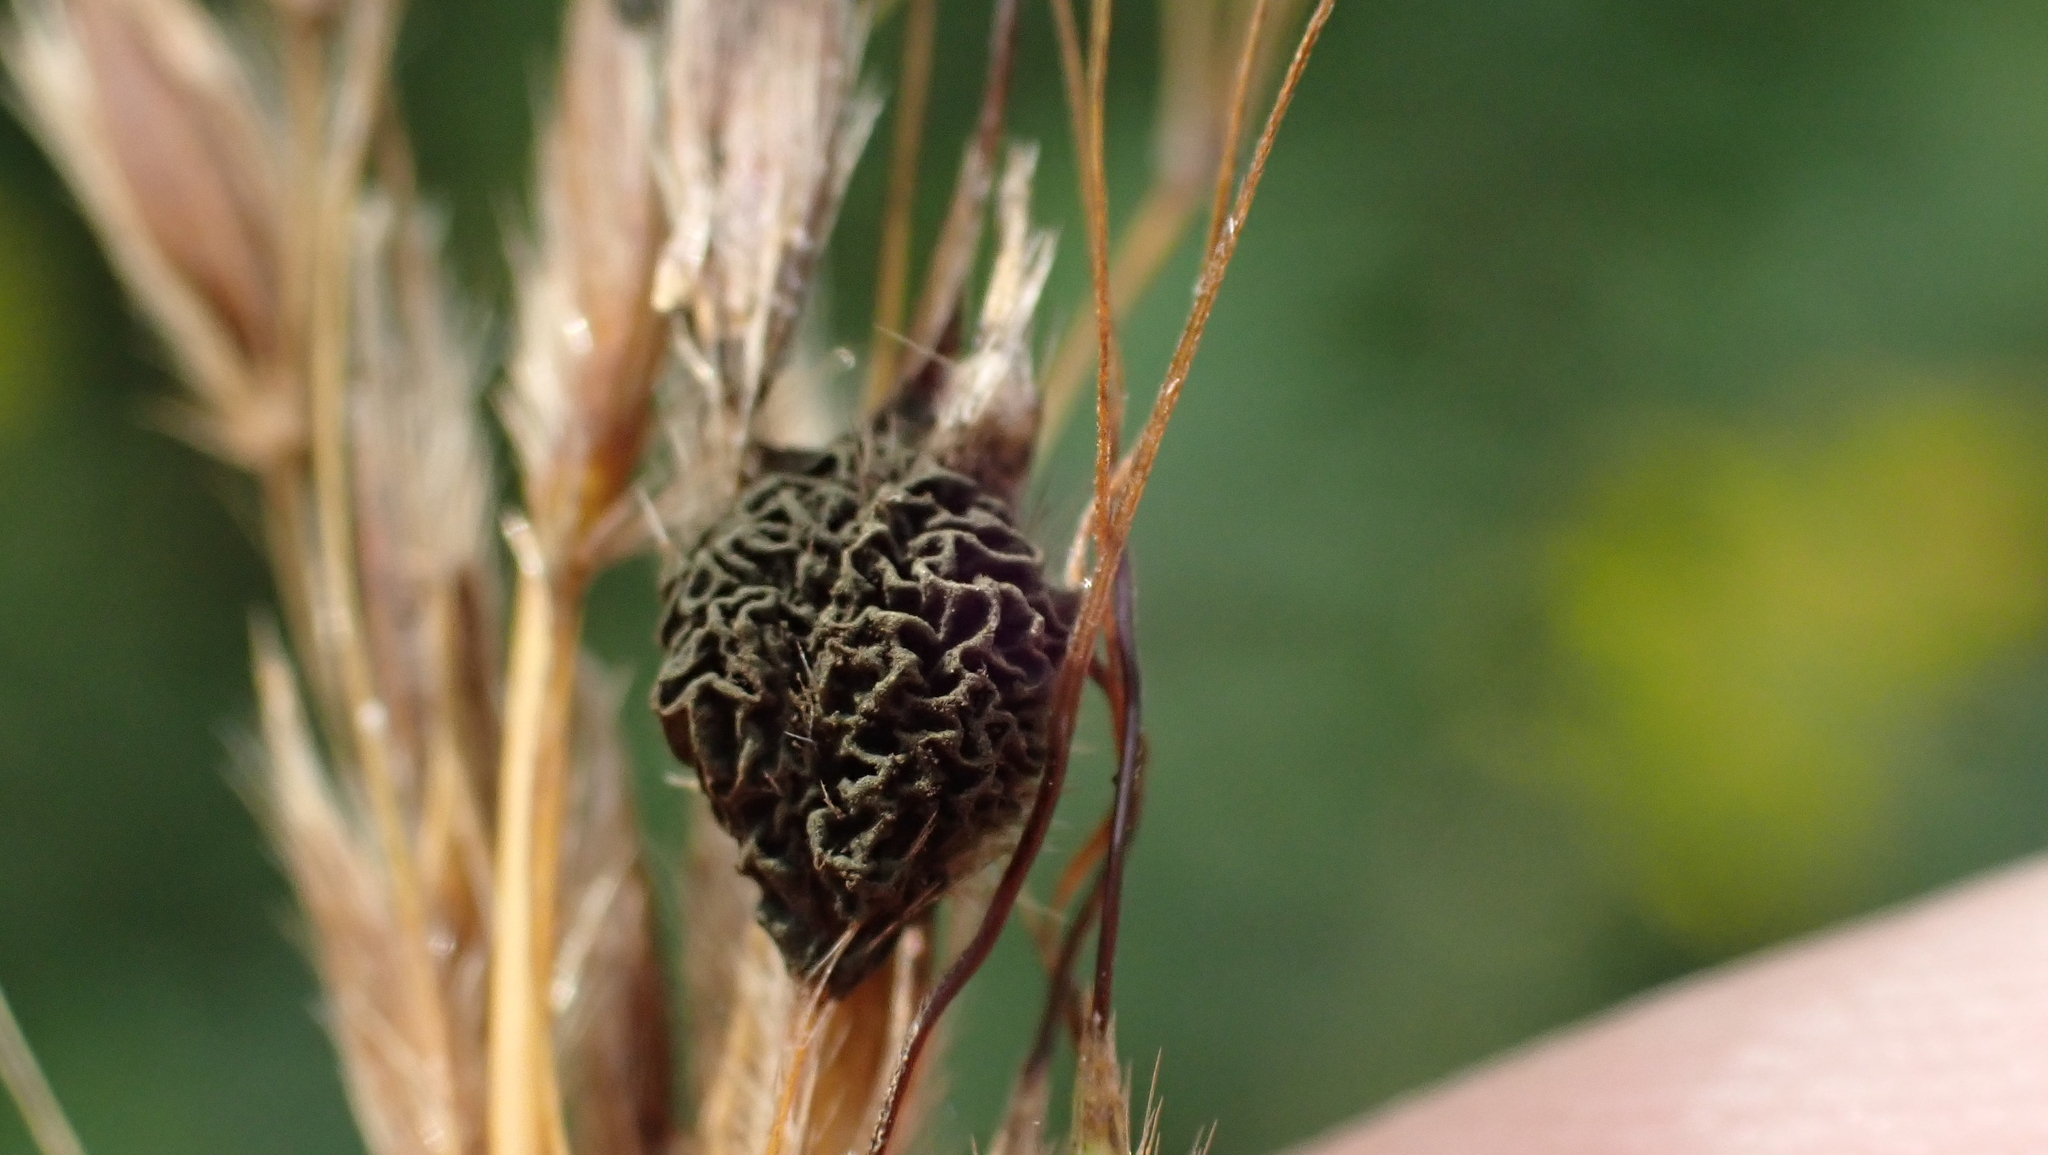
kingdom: Fungi
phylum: Ascomycota
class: Dothideomycetes
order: Pleosporales
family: Didymellaceae
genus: Epicoccum
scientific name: Epicoccum andropogonis
